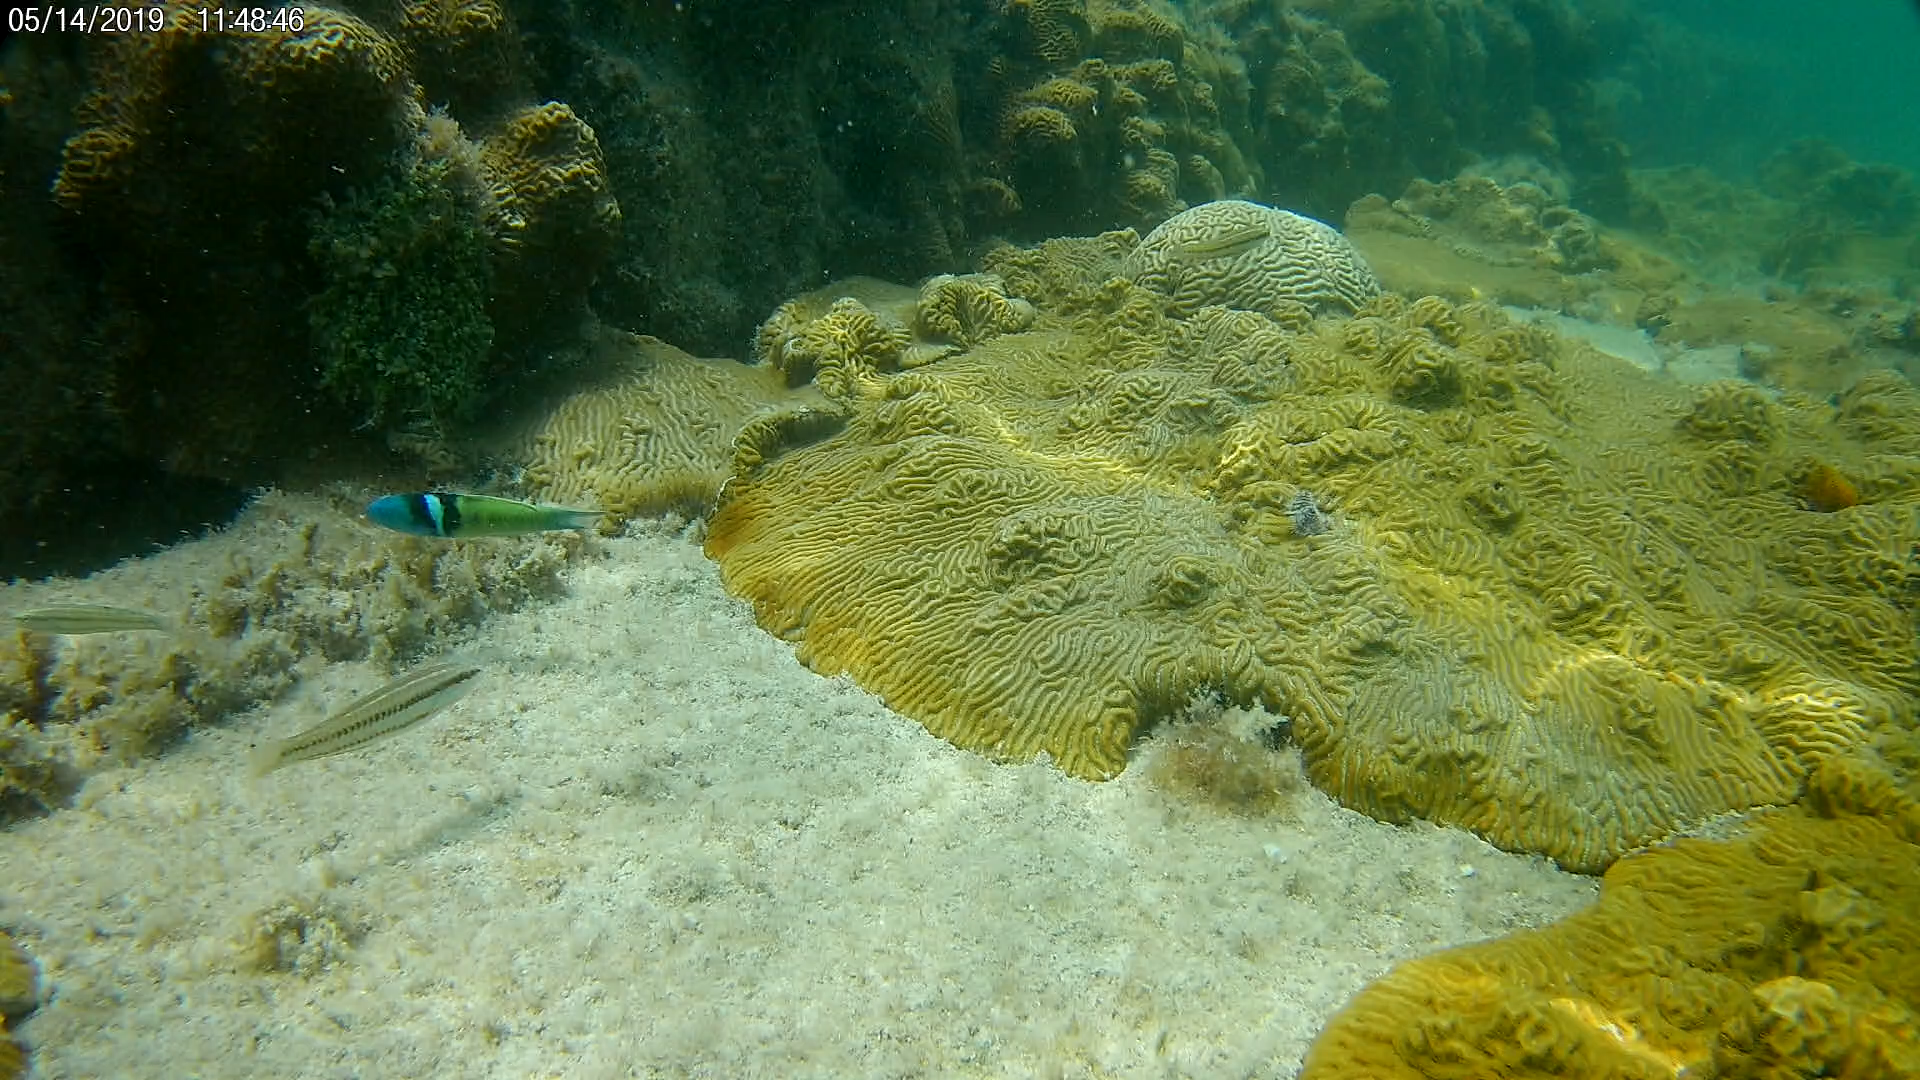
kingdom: Animalia
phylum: Chordata
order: Perciformes
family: Labridae
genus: Thalassoma
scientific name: Thalassoma bifasciatum
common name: Bluehead wrasse
